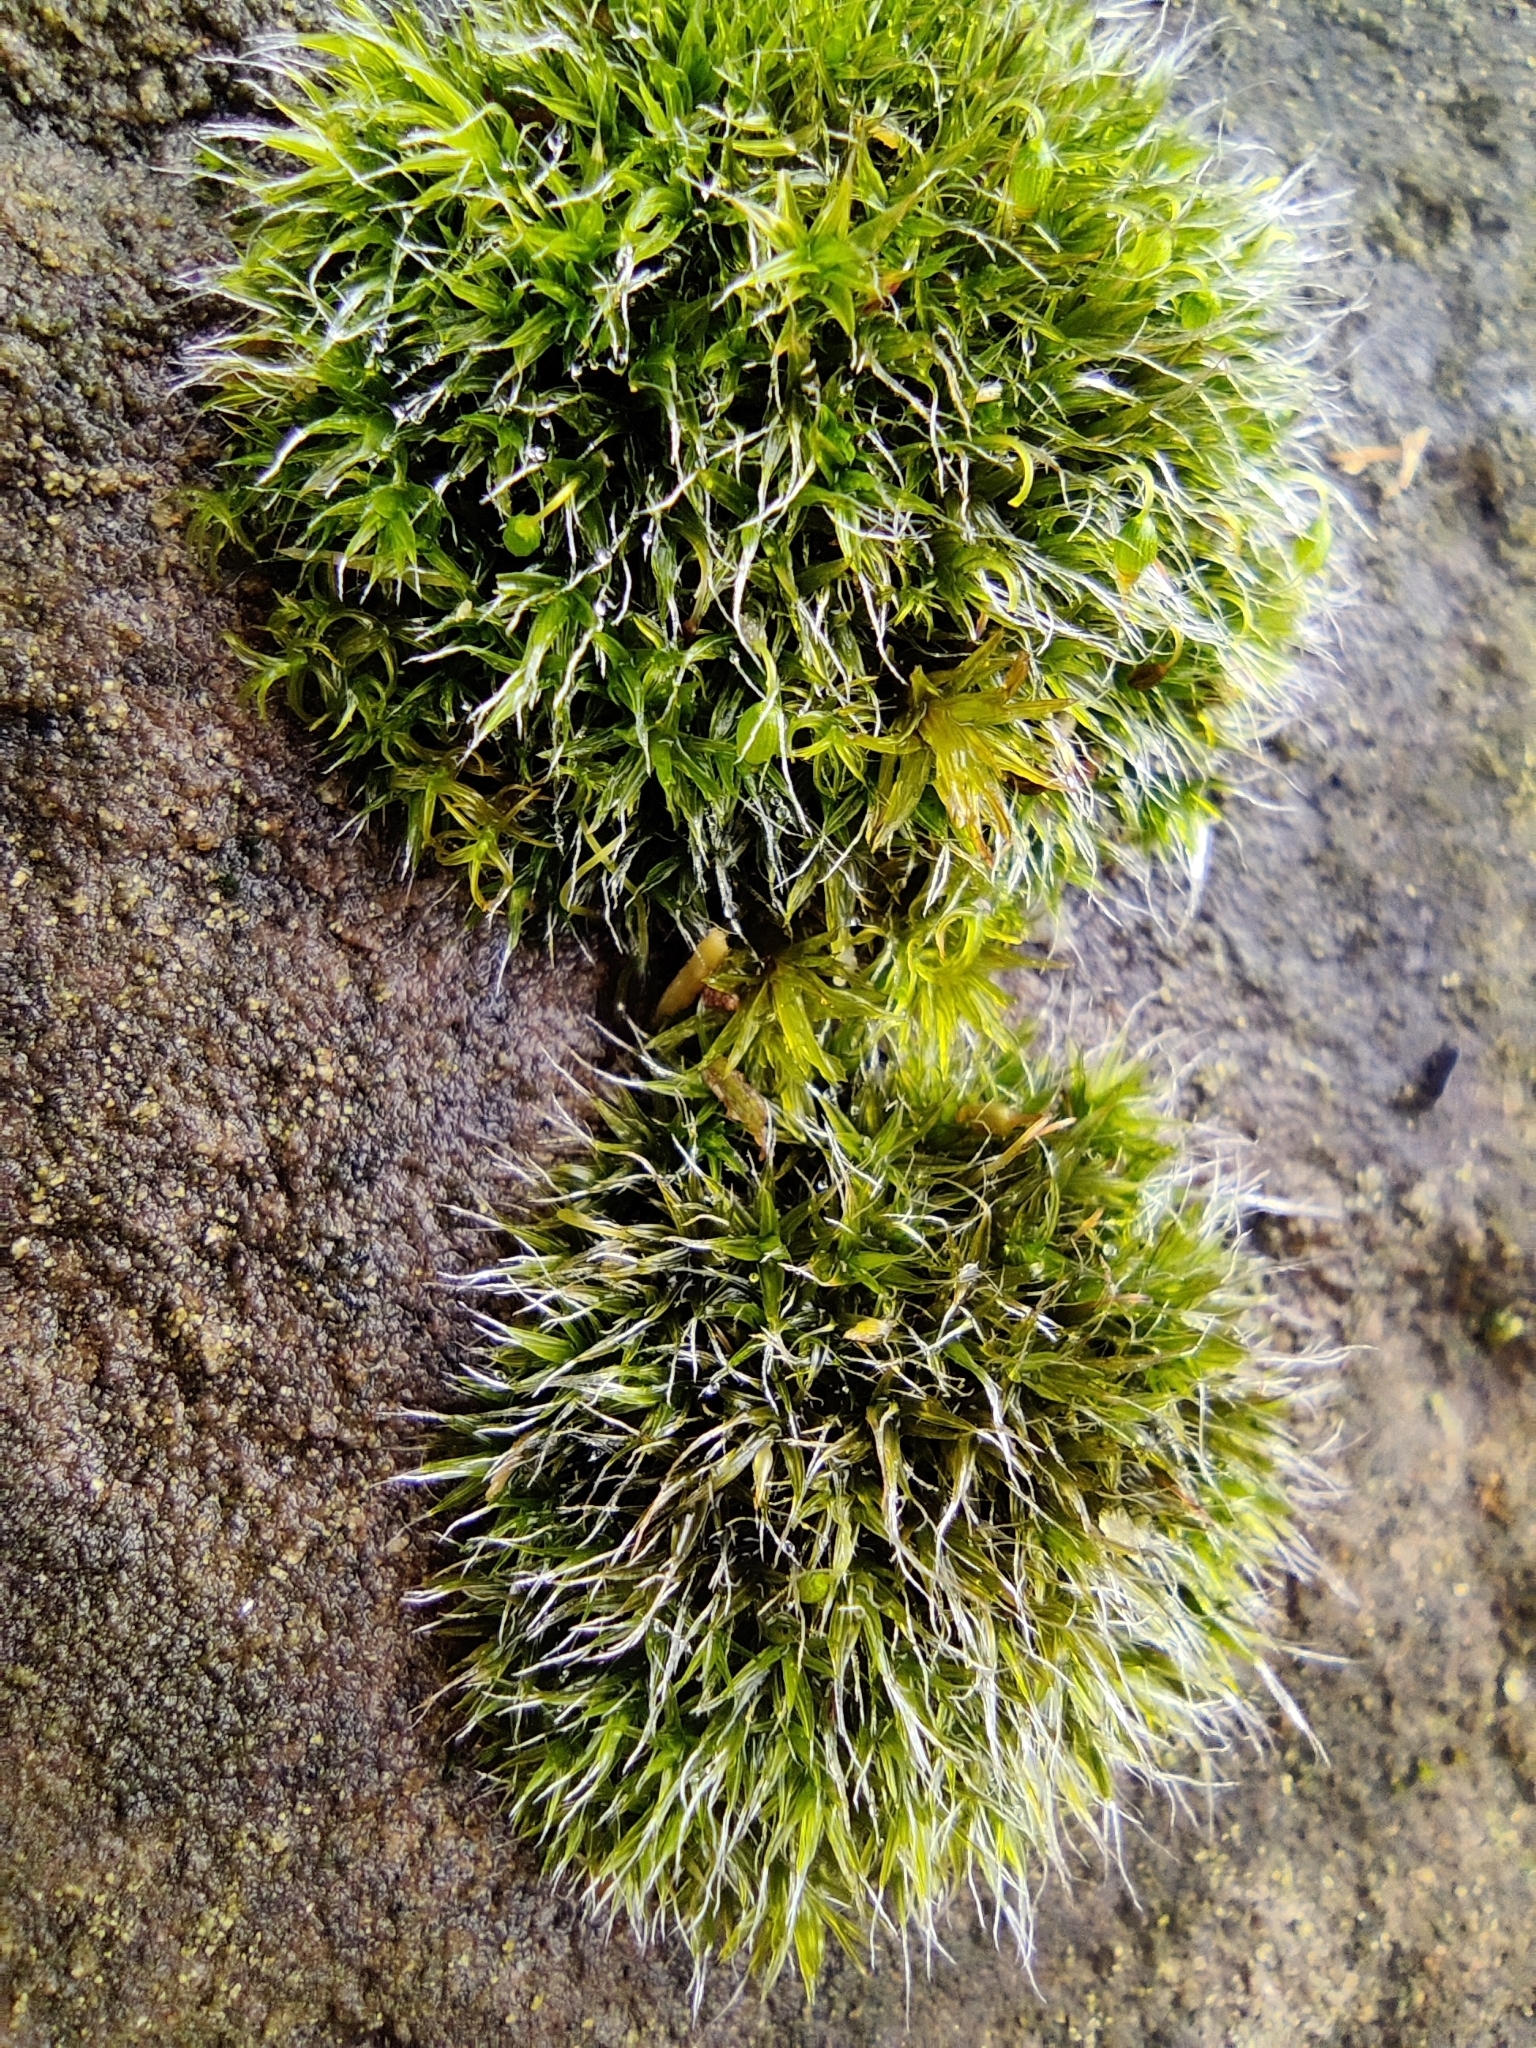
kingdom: Plantae
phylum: Bryophyta
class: Bryopsida
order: Grimmiales
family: Grimmiaceae
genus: Grimmia
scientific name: Grimmia pulvinata
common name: Grey-cushioned grimmia
